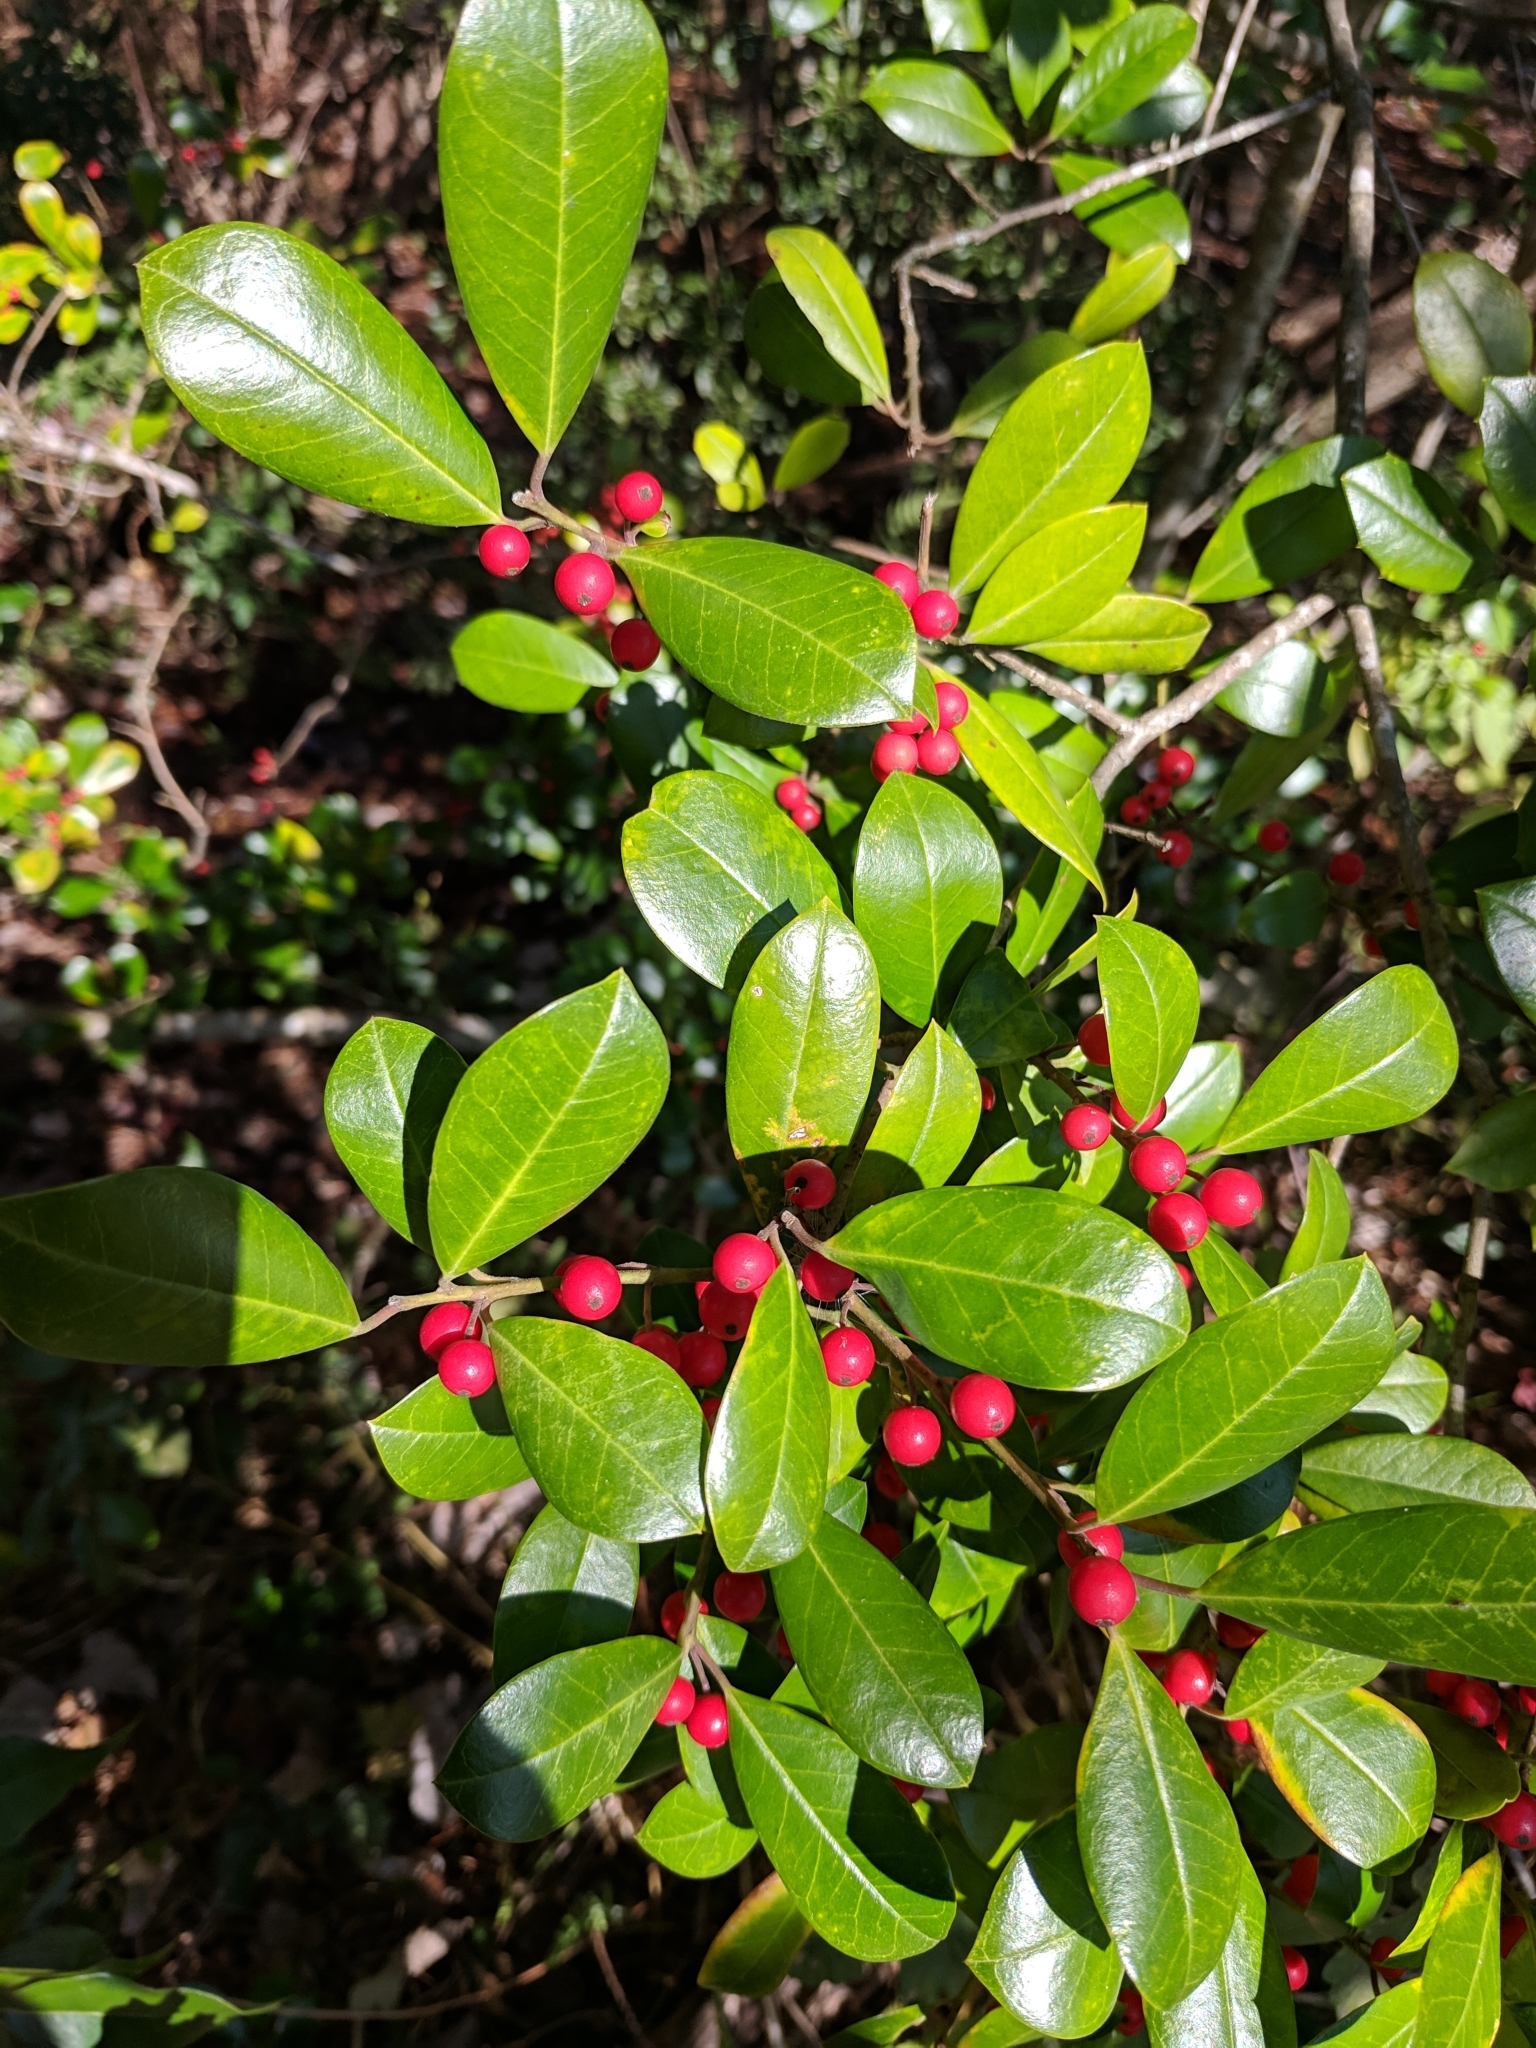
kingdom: Plantae
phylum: Tracheophyta
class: Magnoliopsida
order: Aquifoliales
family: Aquifoliaceae
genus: Ilex
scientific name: Ilex cassine
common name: Dahoon
